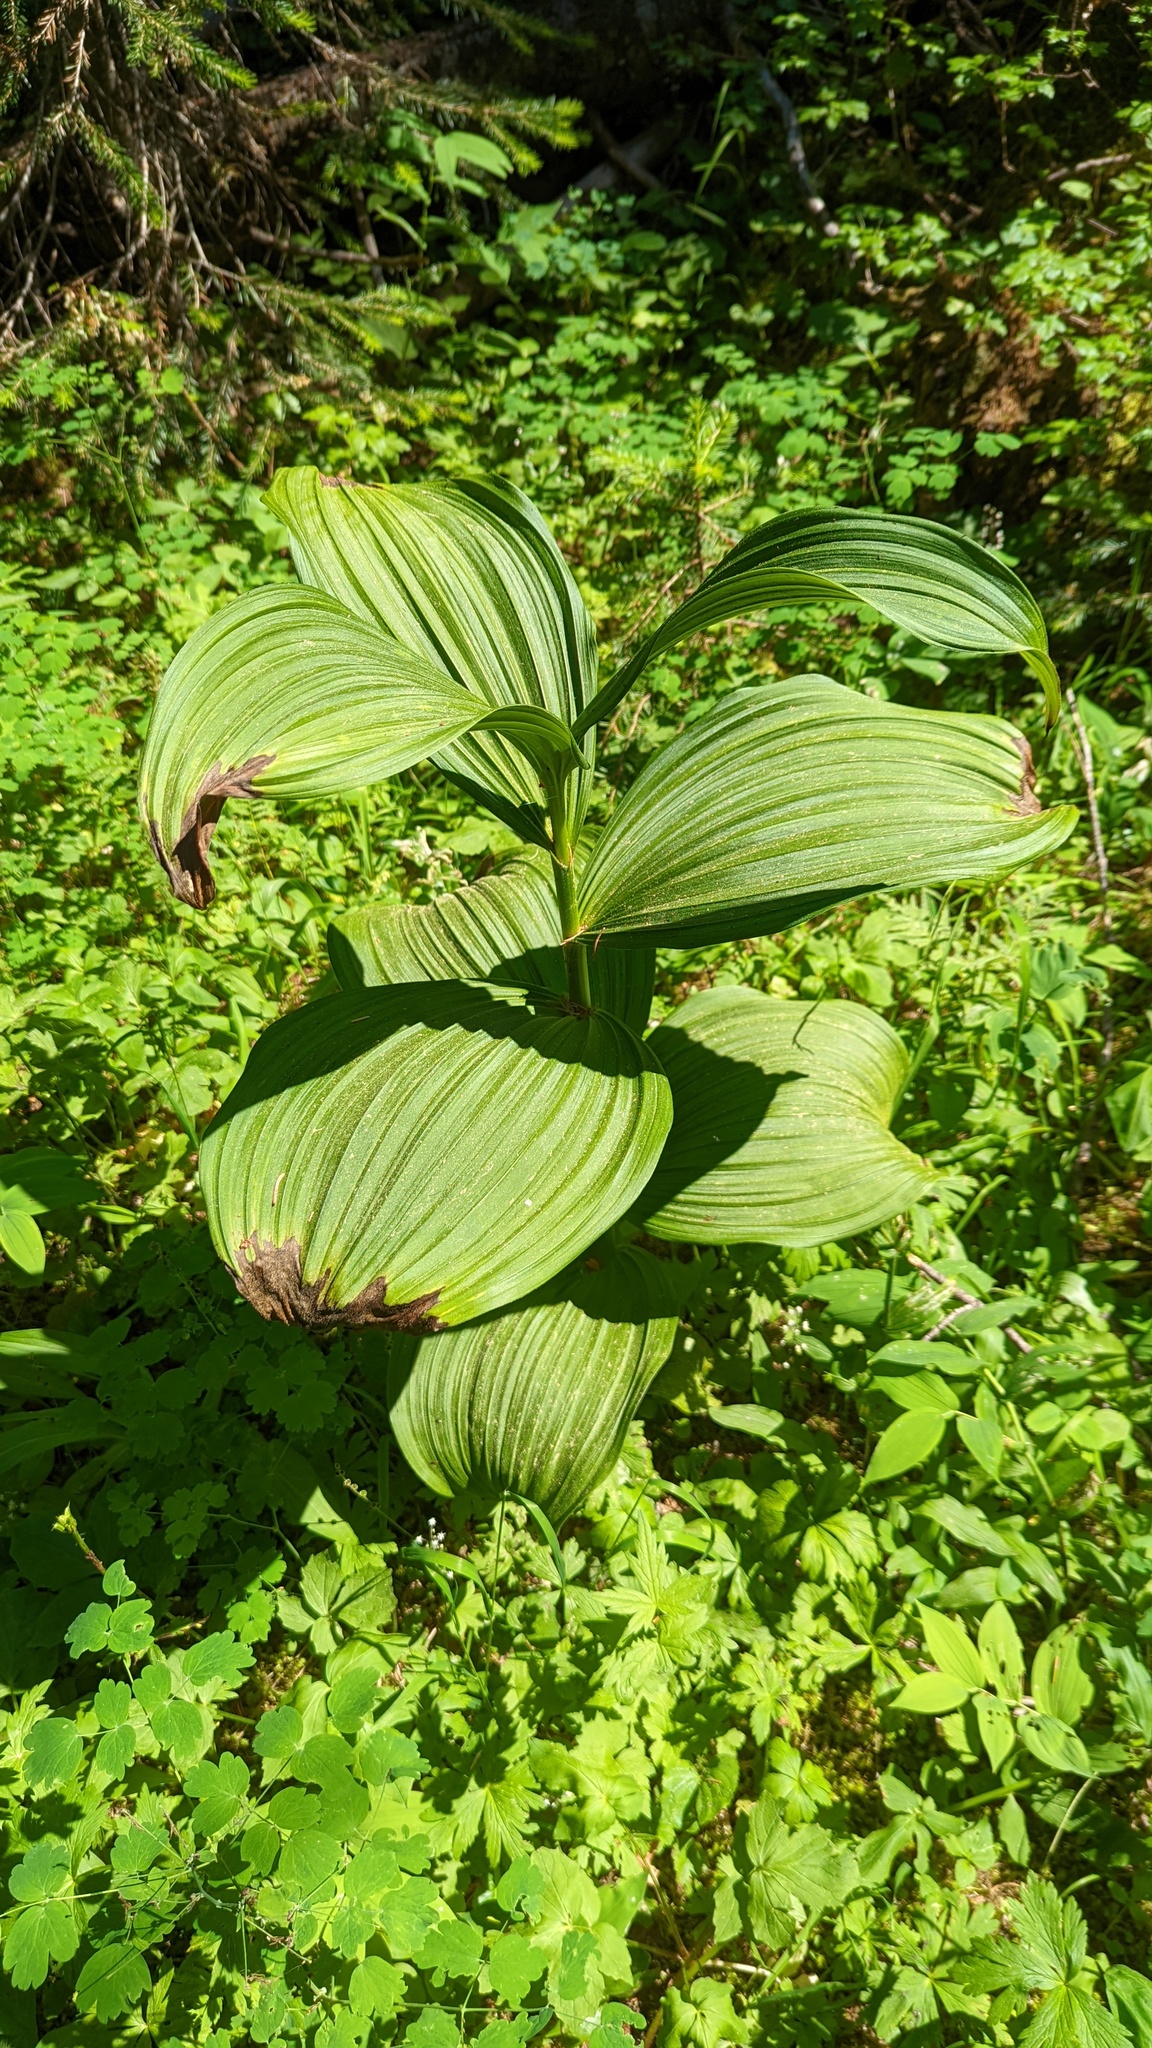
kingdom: Plantae
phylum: Tracheophyta
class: Liliopsida
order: Liliales
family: Melanthiaceae
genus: Veratrum
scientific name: Veratrum viride
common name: American false hellebore
